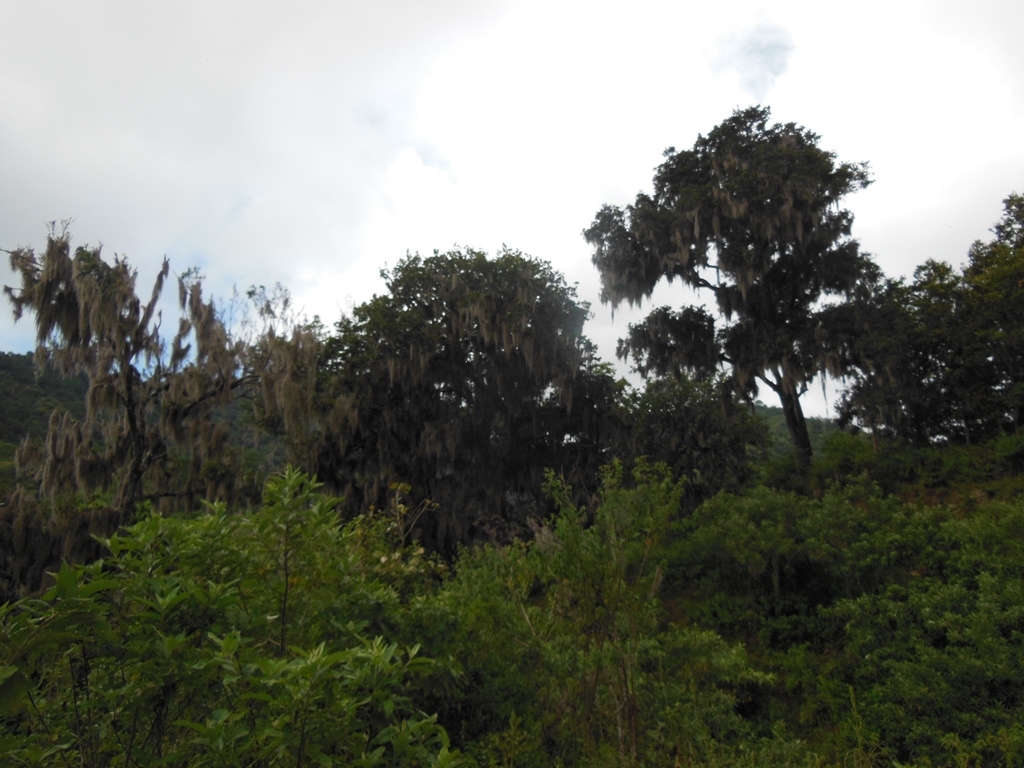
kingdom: Plantae
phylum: Tracheophyta
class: Liliopsida
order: Poales
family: Bromeliaceae
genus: Tillandsia
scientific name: Tillandsia usneoides
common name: Spanish moss
